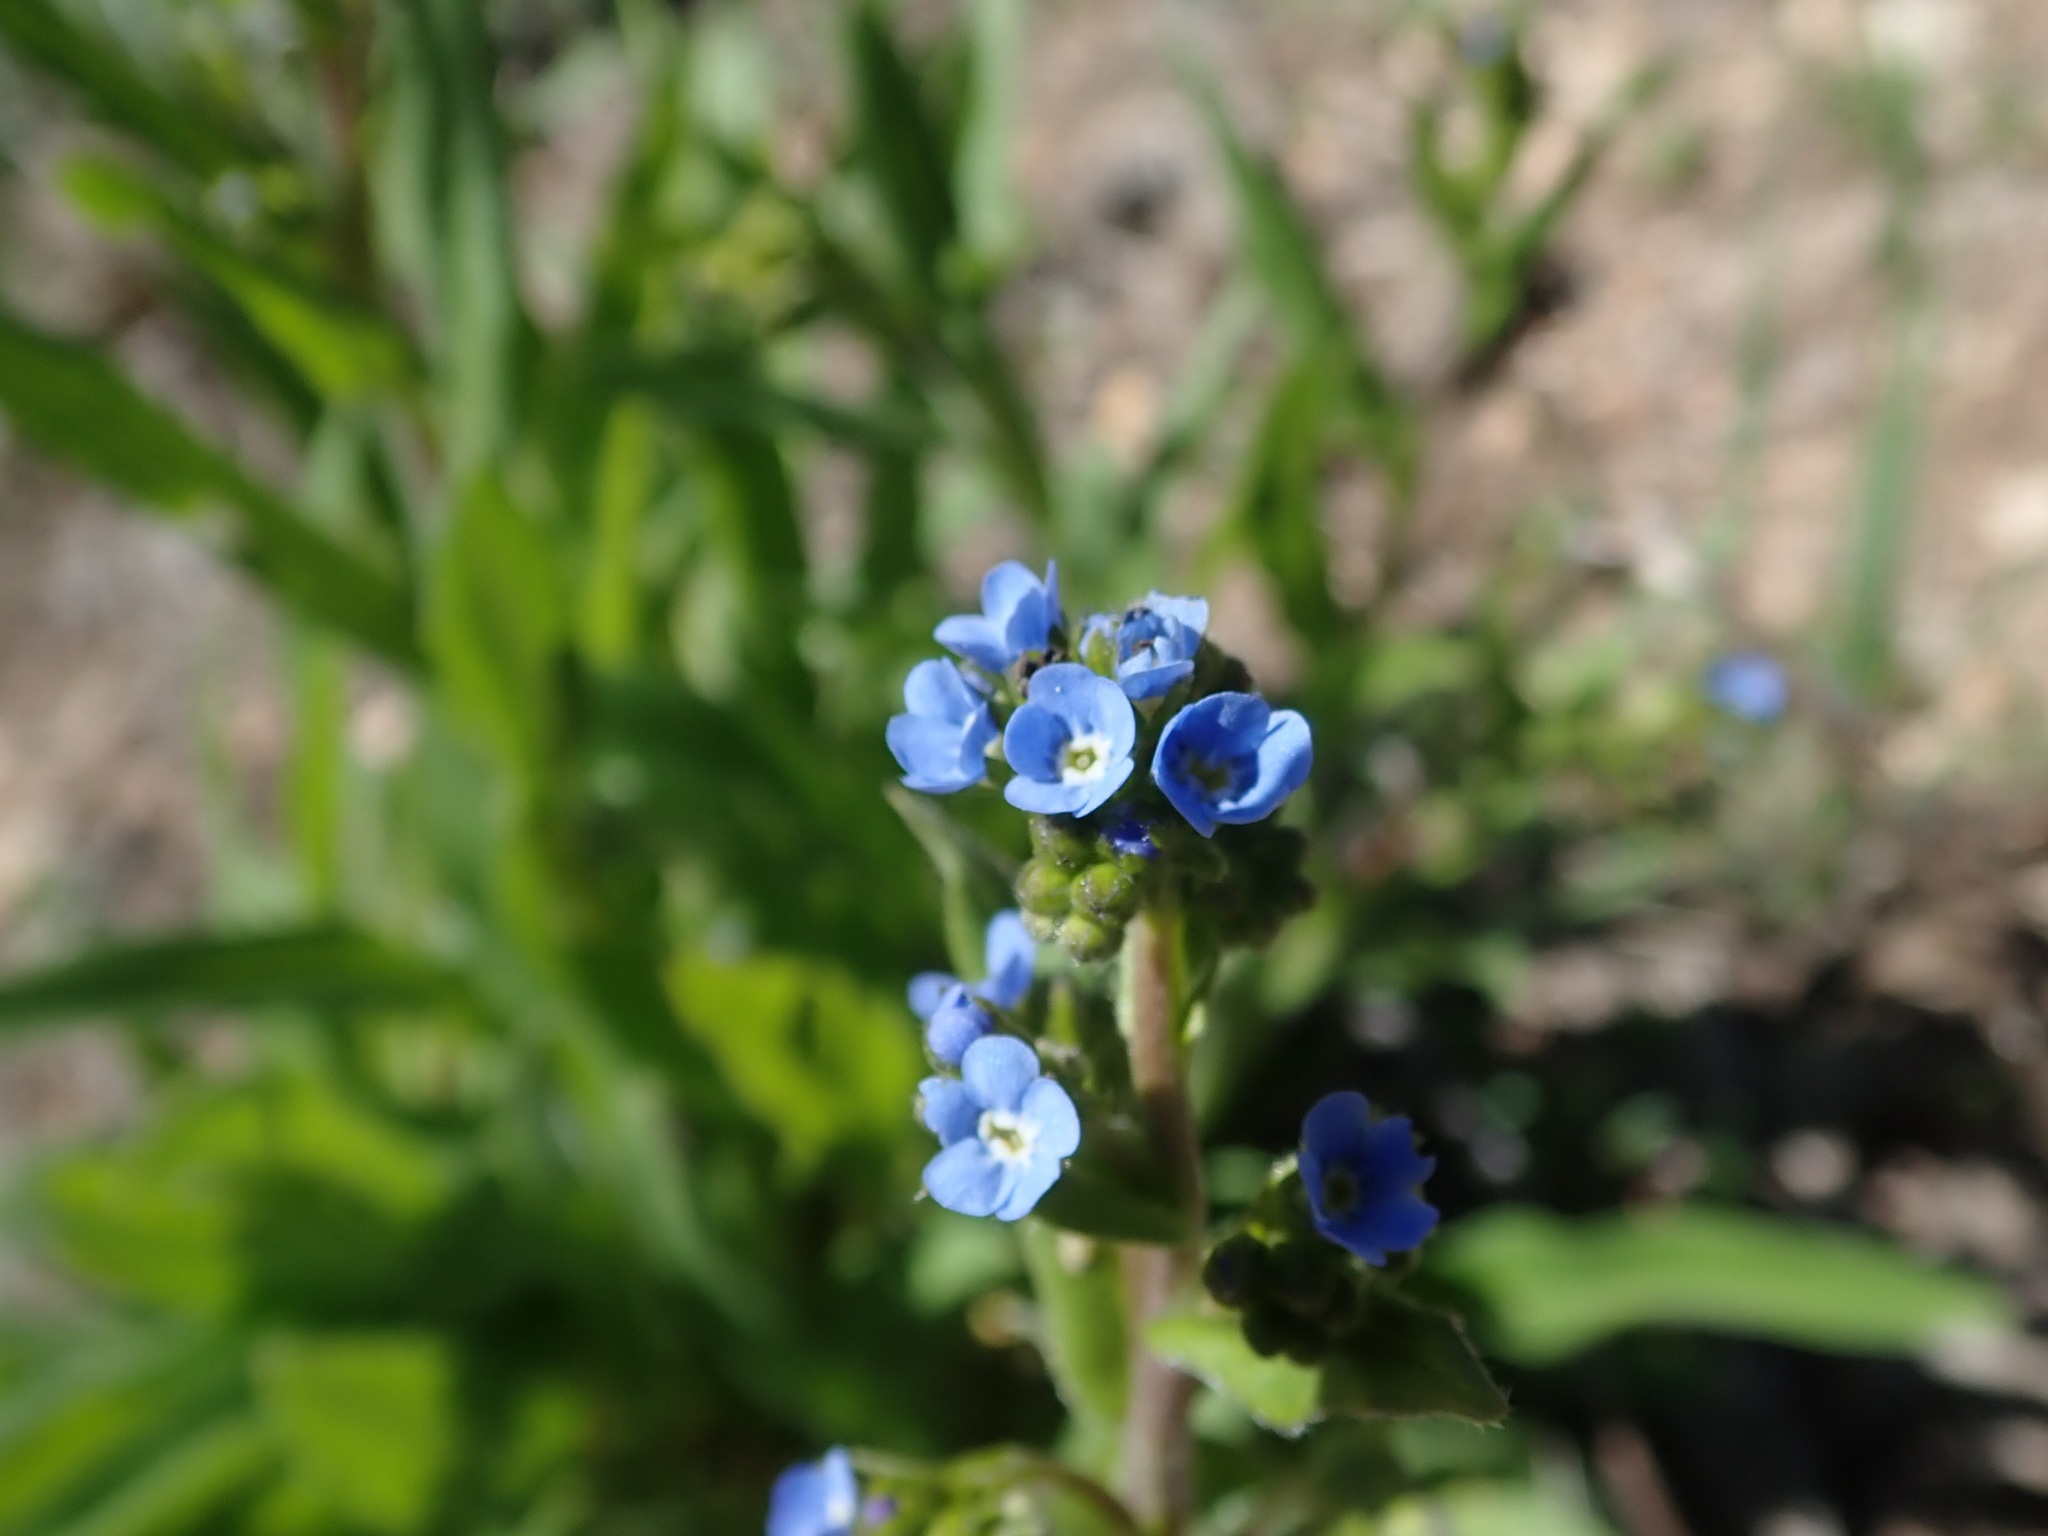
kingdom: Plantae
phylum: Tracheophyta
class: Magnoliopsida
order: Boraginales
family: Boraginaceae
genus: Hackelia
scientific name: Hackelia nervosa
